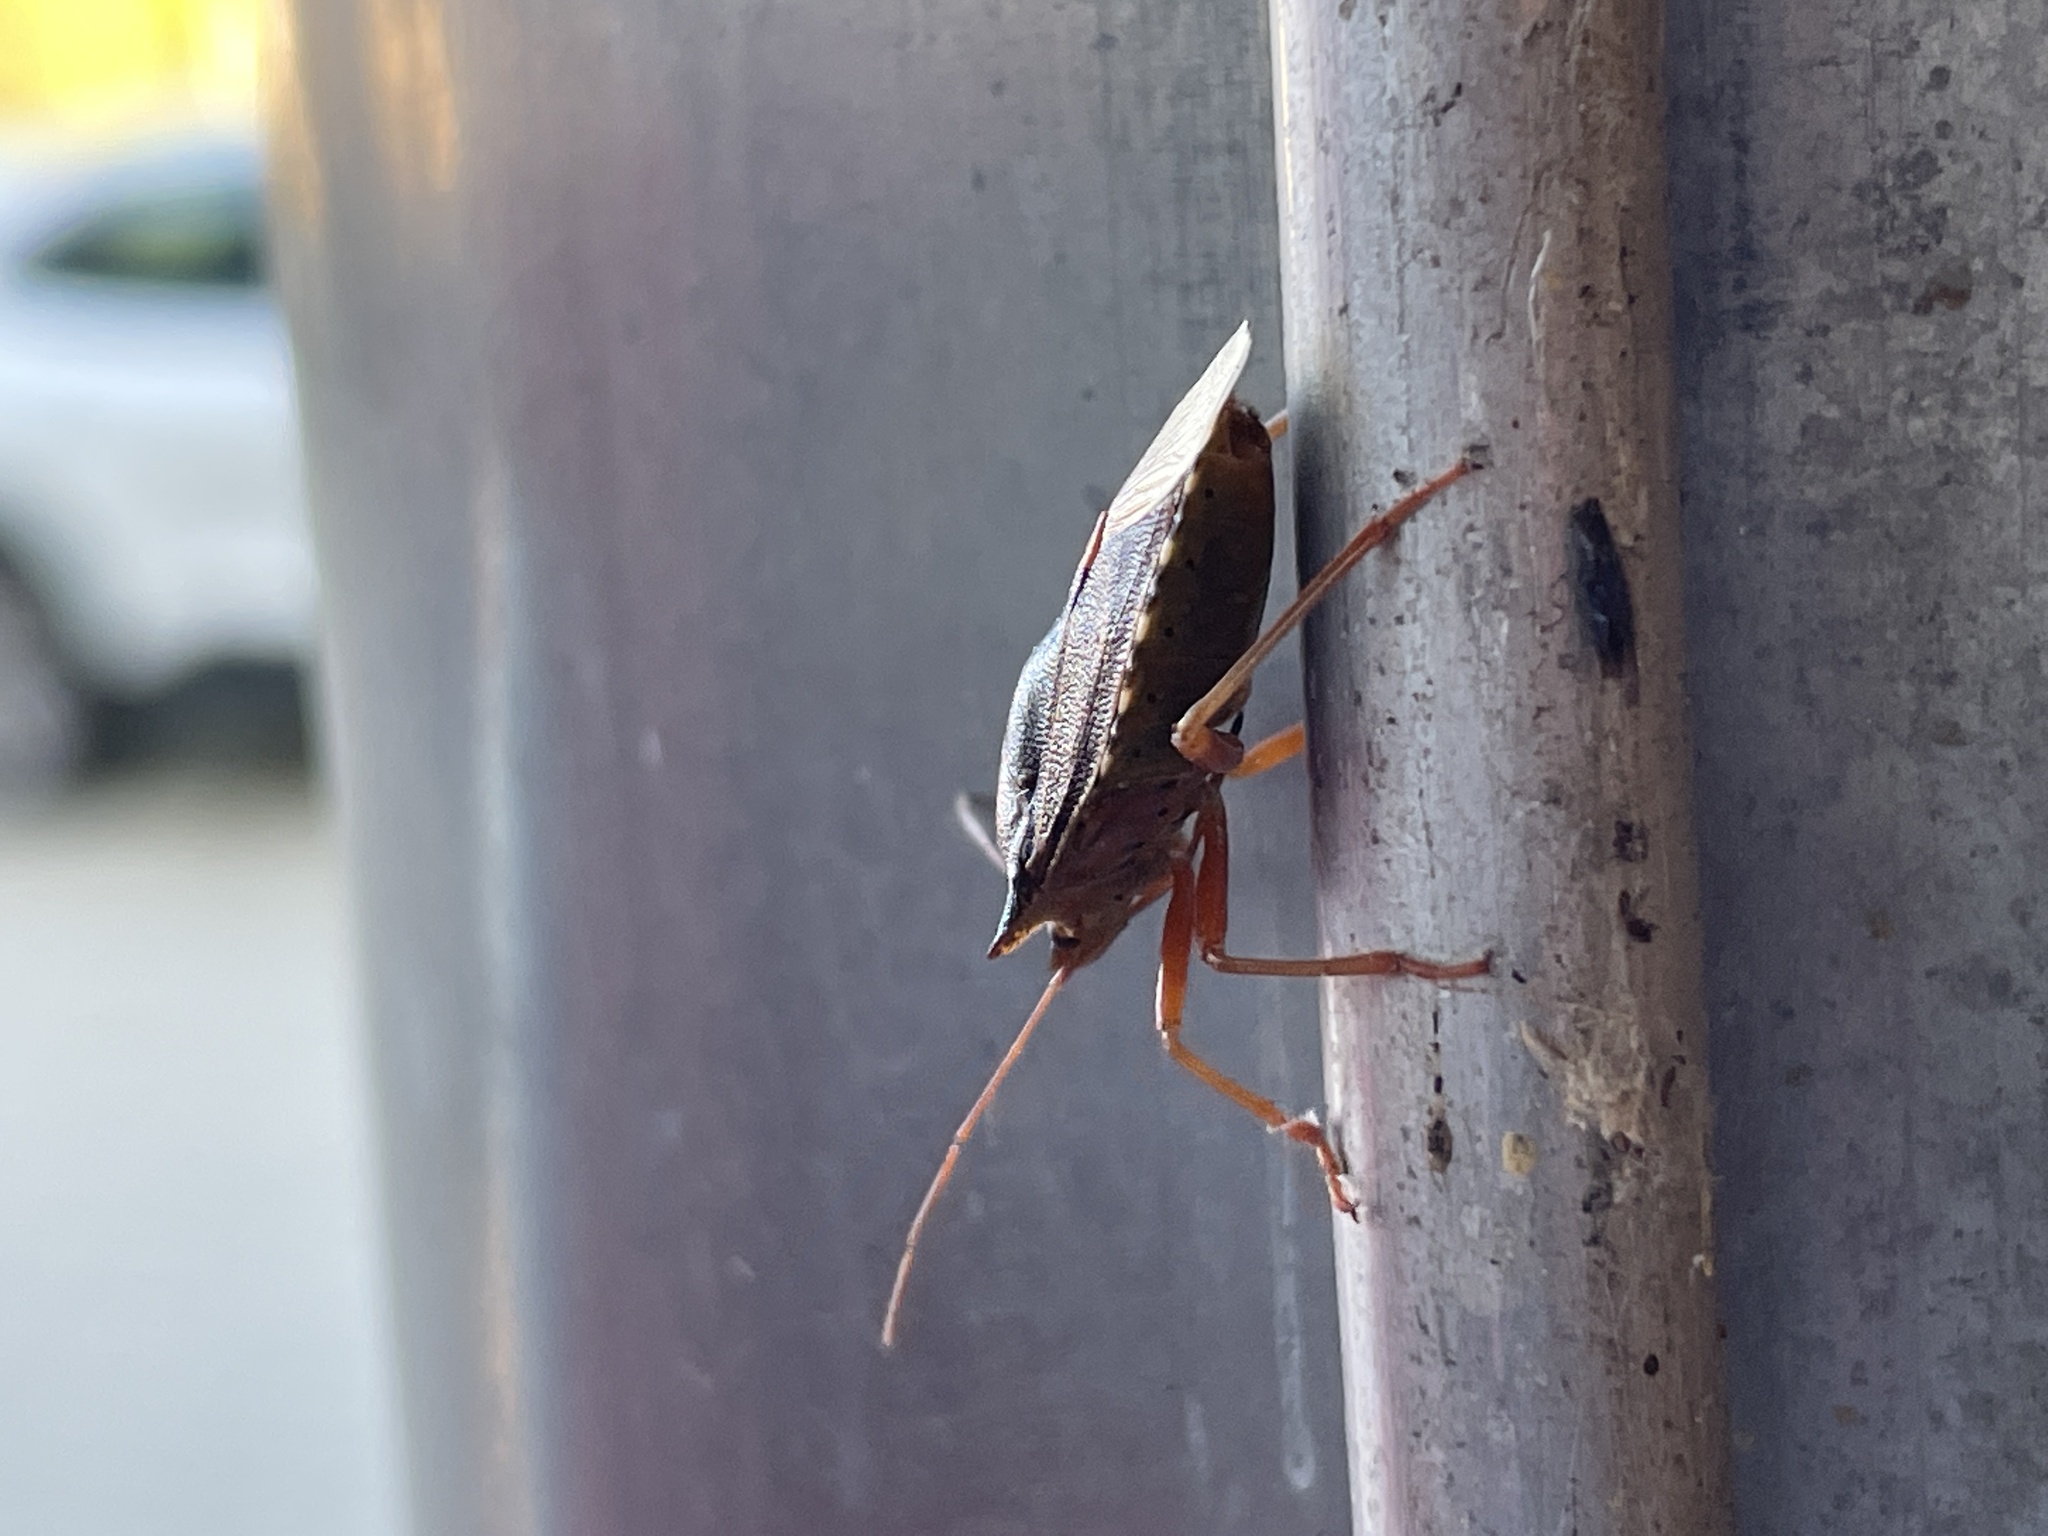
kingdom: Animalia
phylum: Arthropoda
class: Insecta
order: Hemiptera
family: Pentatomidae
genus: Pentatoma
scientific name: Pentatoma rufipes
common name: Forest bug
